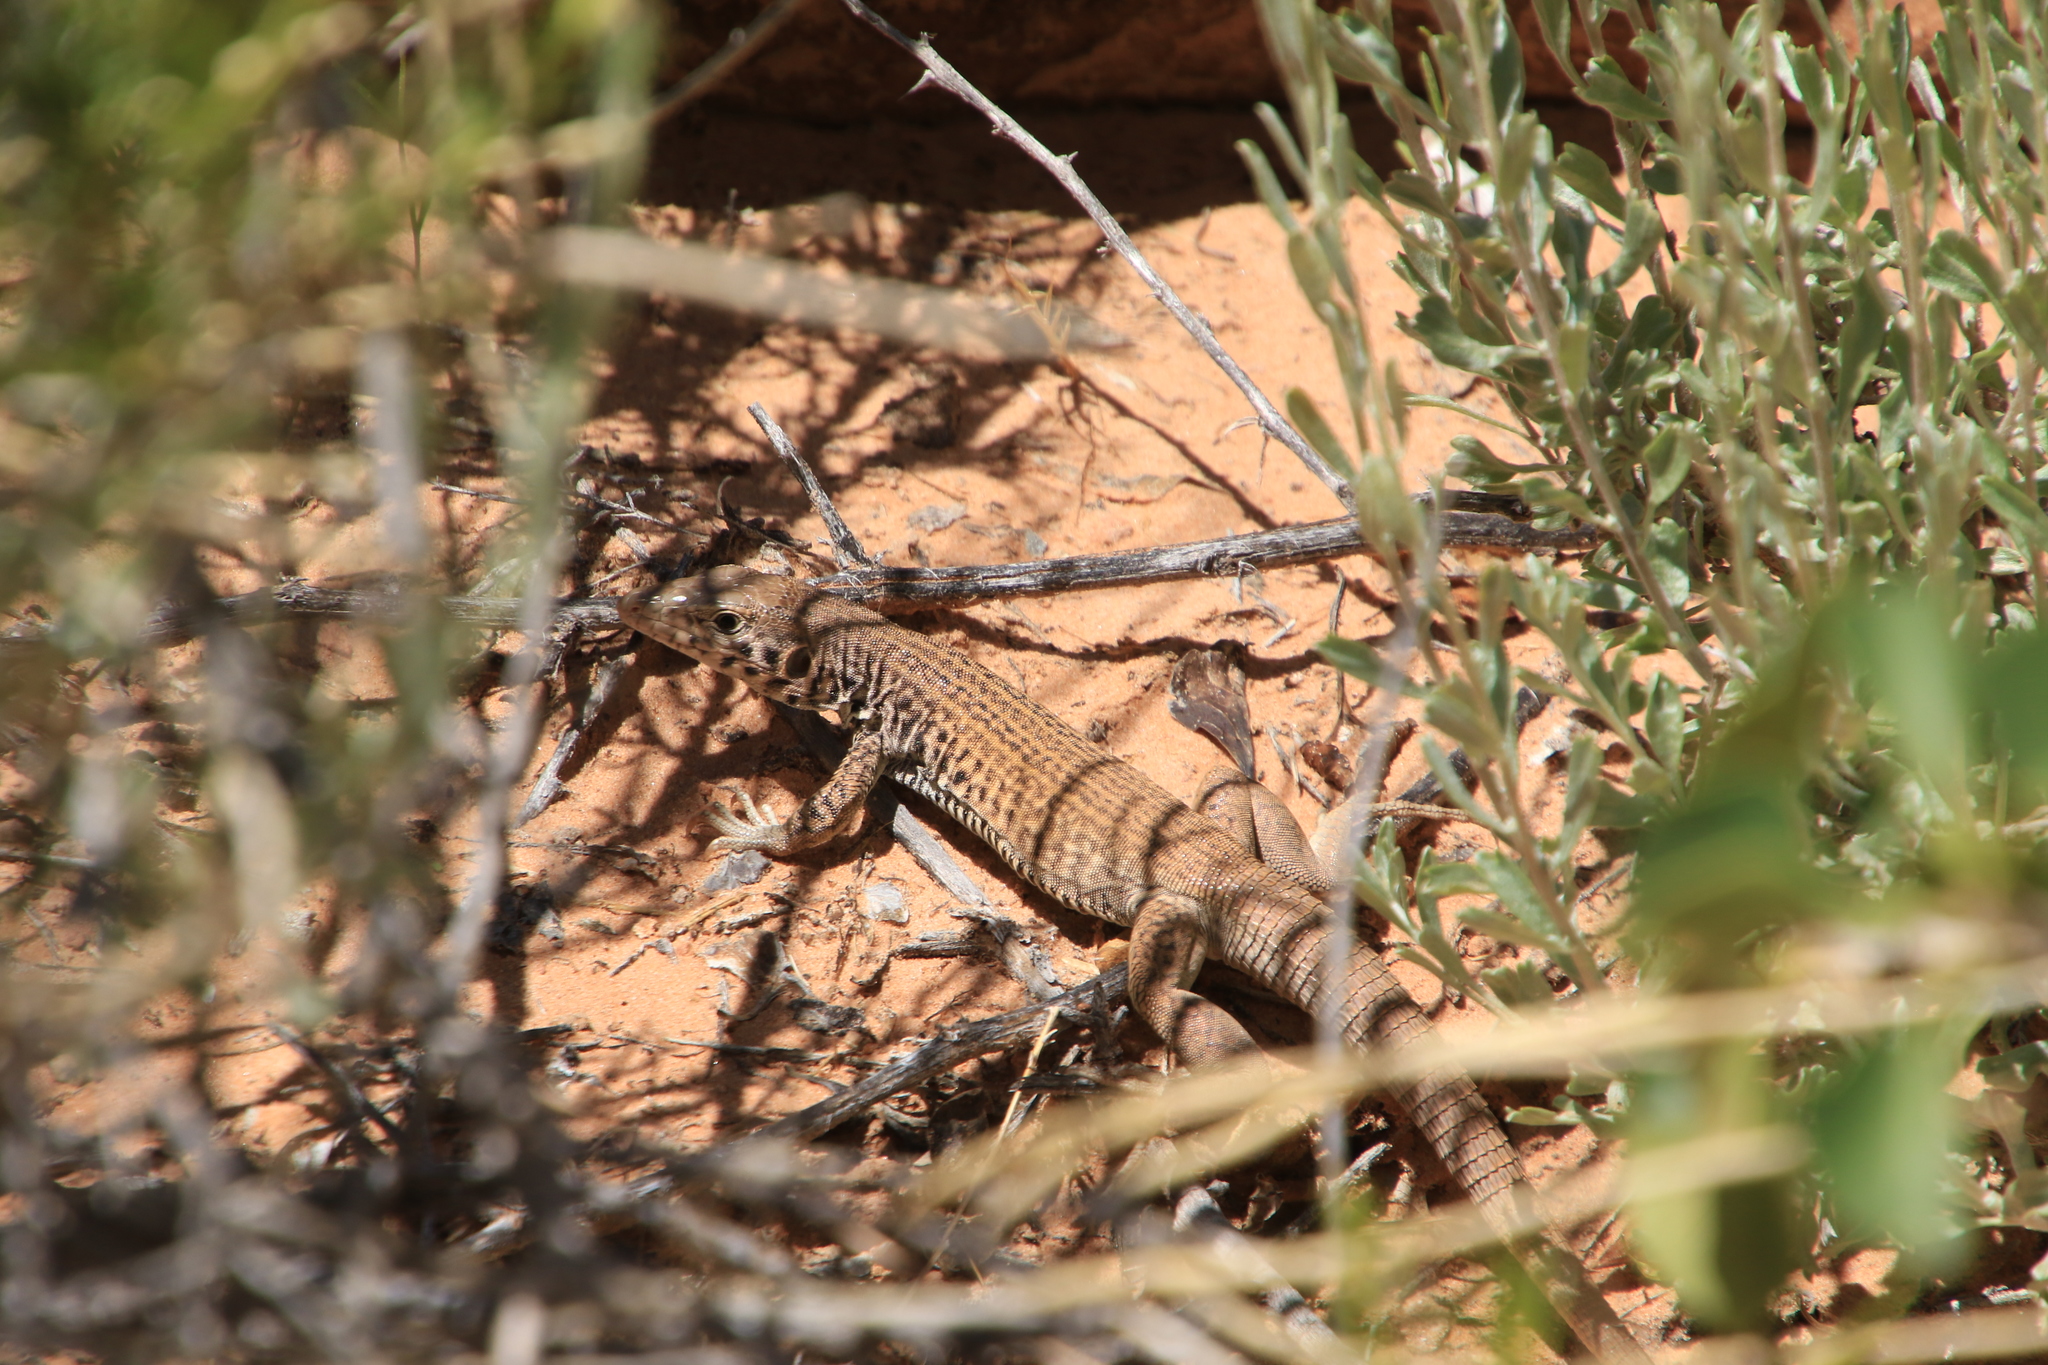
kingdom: Animalia
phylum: Chordata
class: Squamata
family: Teiidae
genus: Aspidoscelis
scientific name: Aspidoscelis tigris
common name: Tiger whiptail
